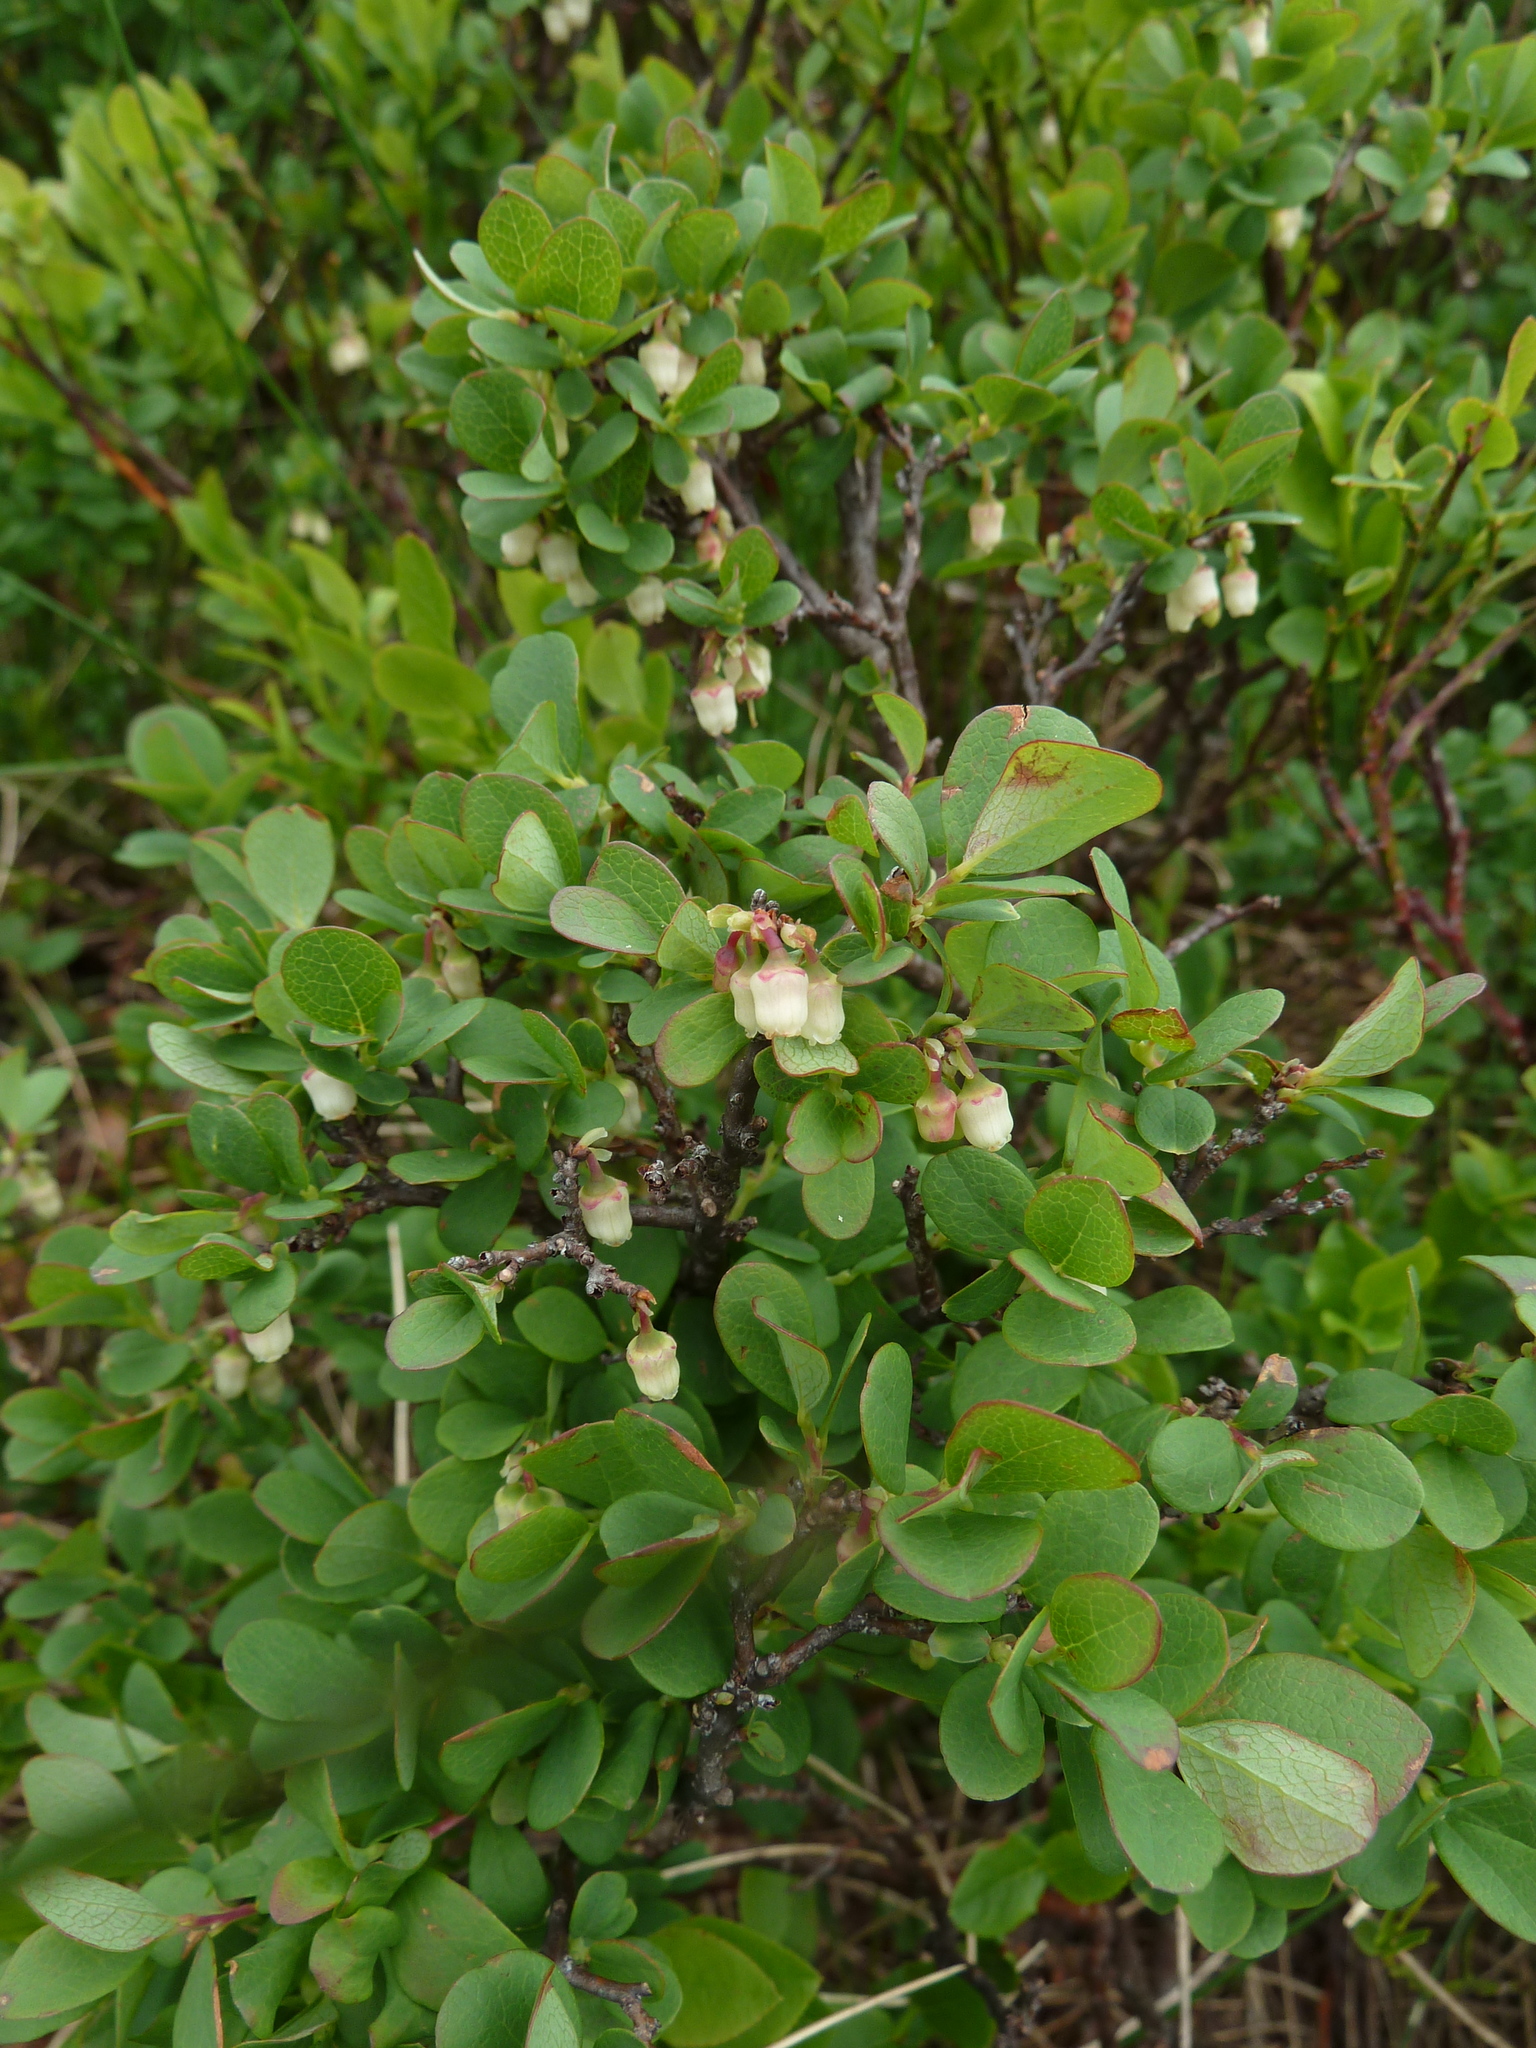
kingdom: Plantae
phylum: Tracheophyta
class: Magnoliopsida
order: Ericales
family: Ericaceae
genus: Vaccinium
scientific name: Vaccinium uliginosum
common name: Bog bilberry
